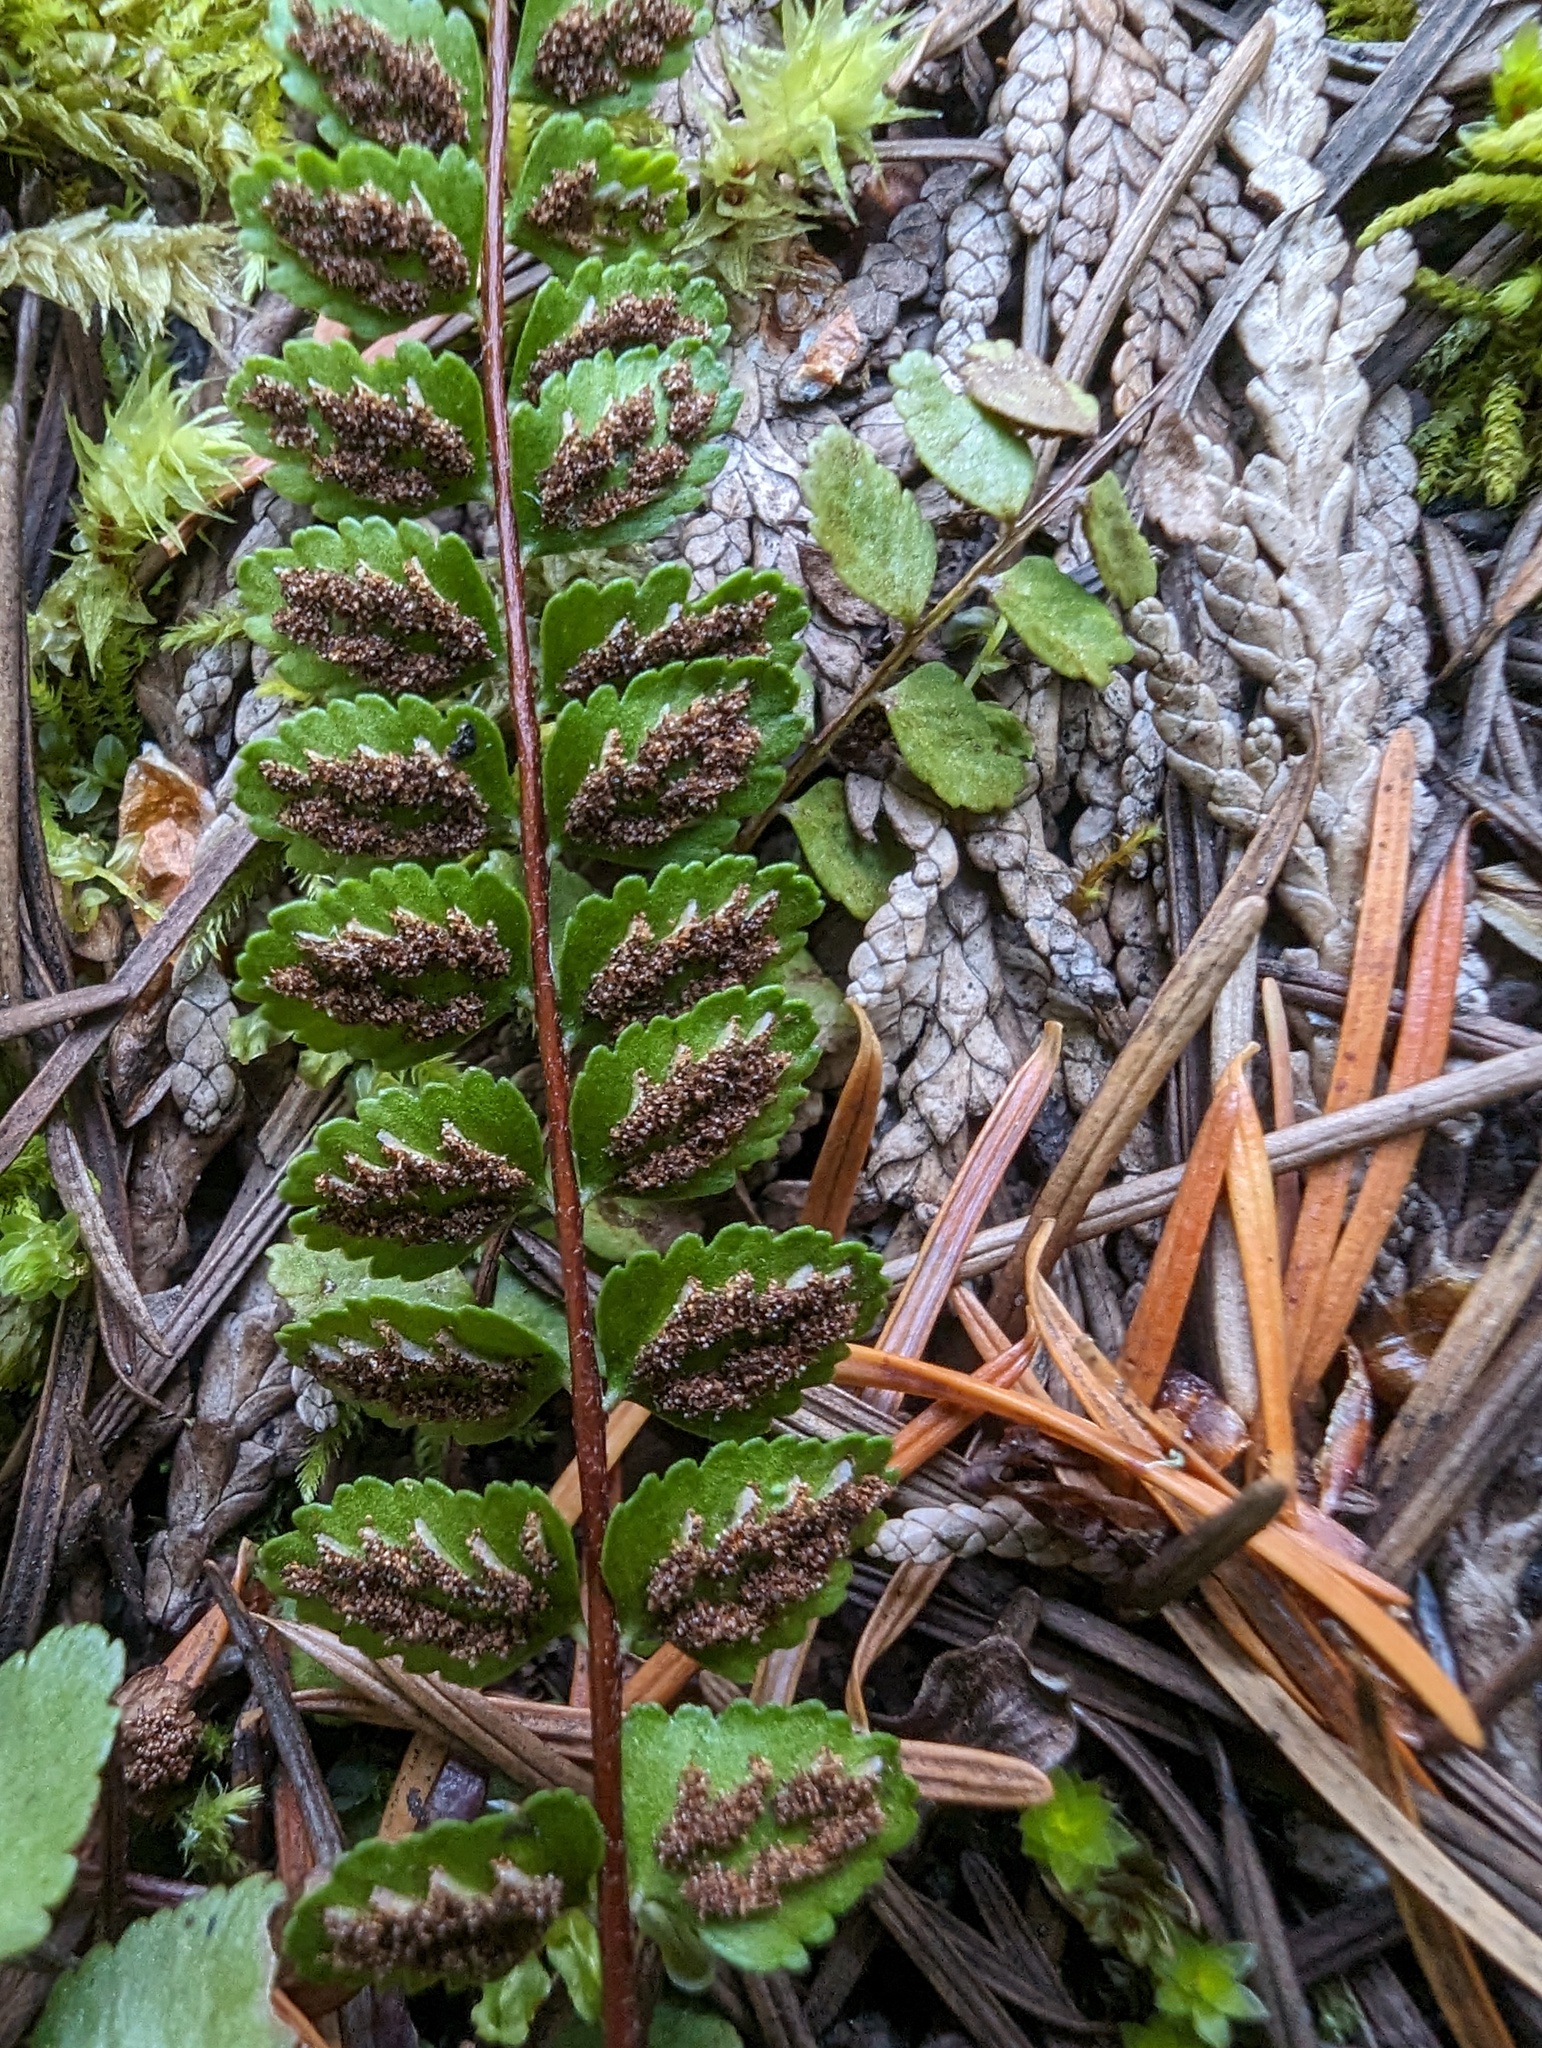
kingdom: Plantae
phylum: Tracheophyta
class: Polypodiopsida
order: Polypodiales
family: Aspleniaceae
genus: Asplenium
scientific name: Asplenium adulterinum
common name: Adulterated spleenwort
